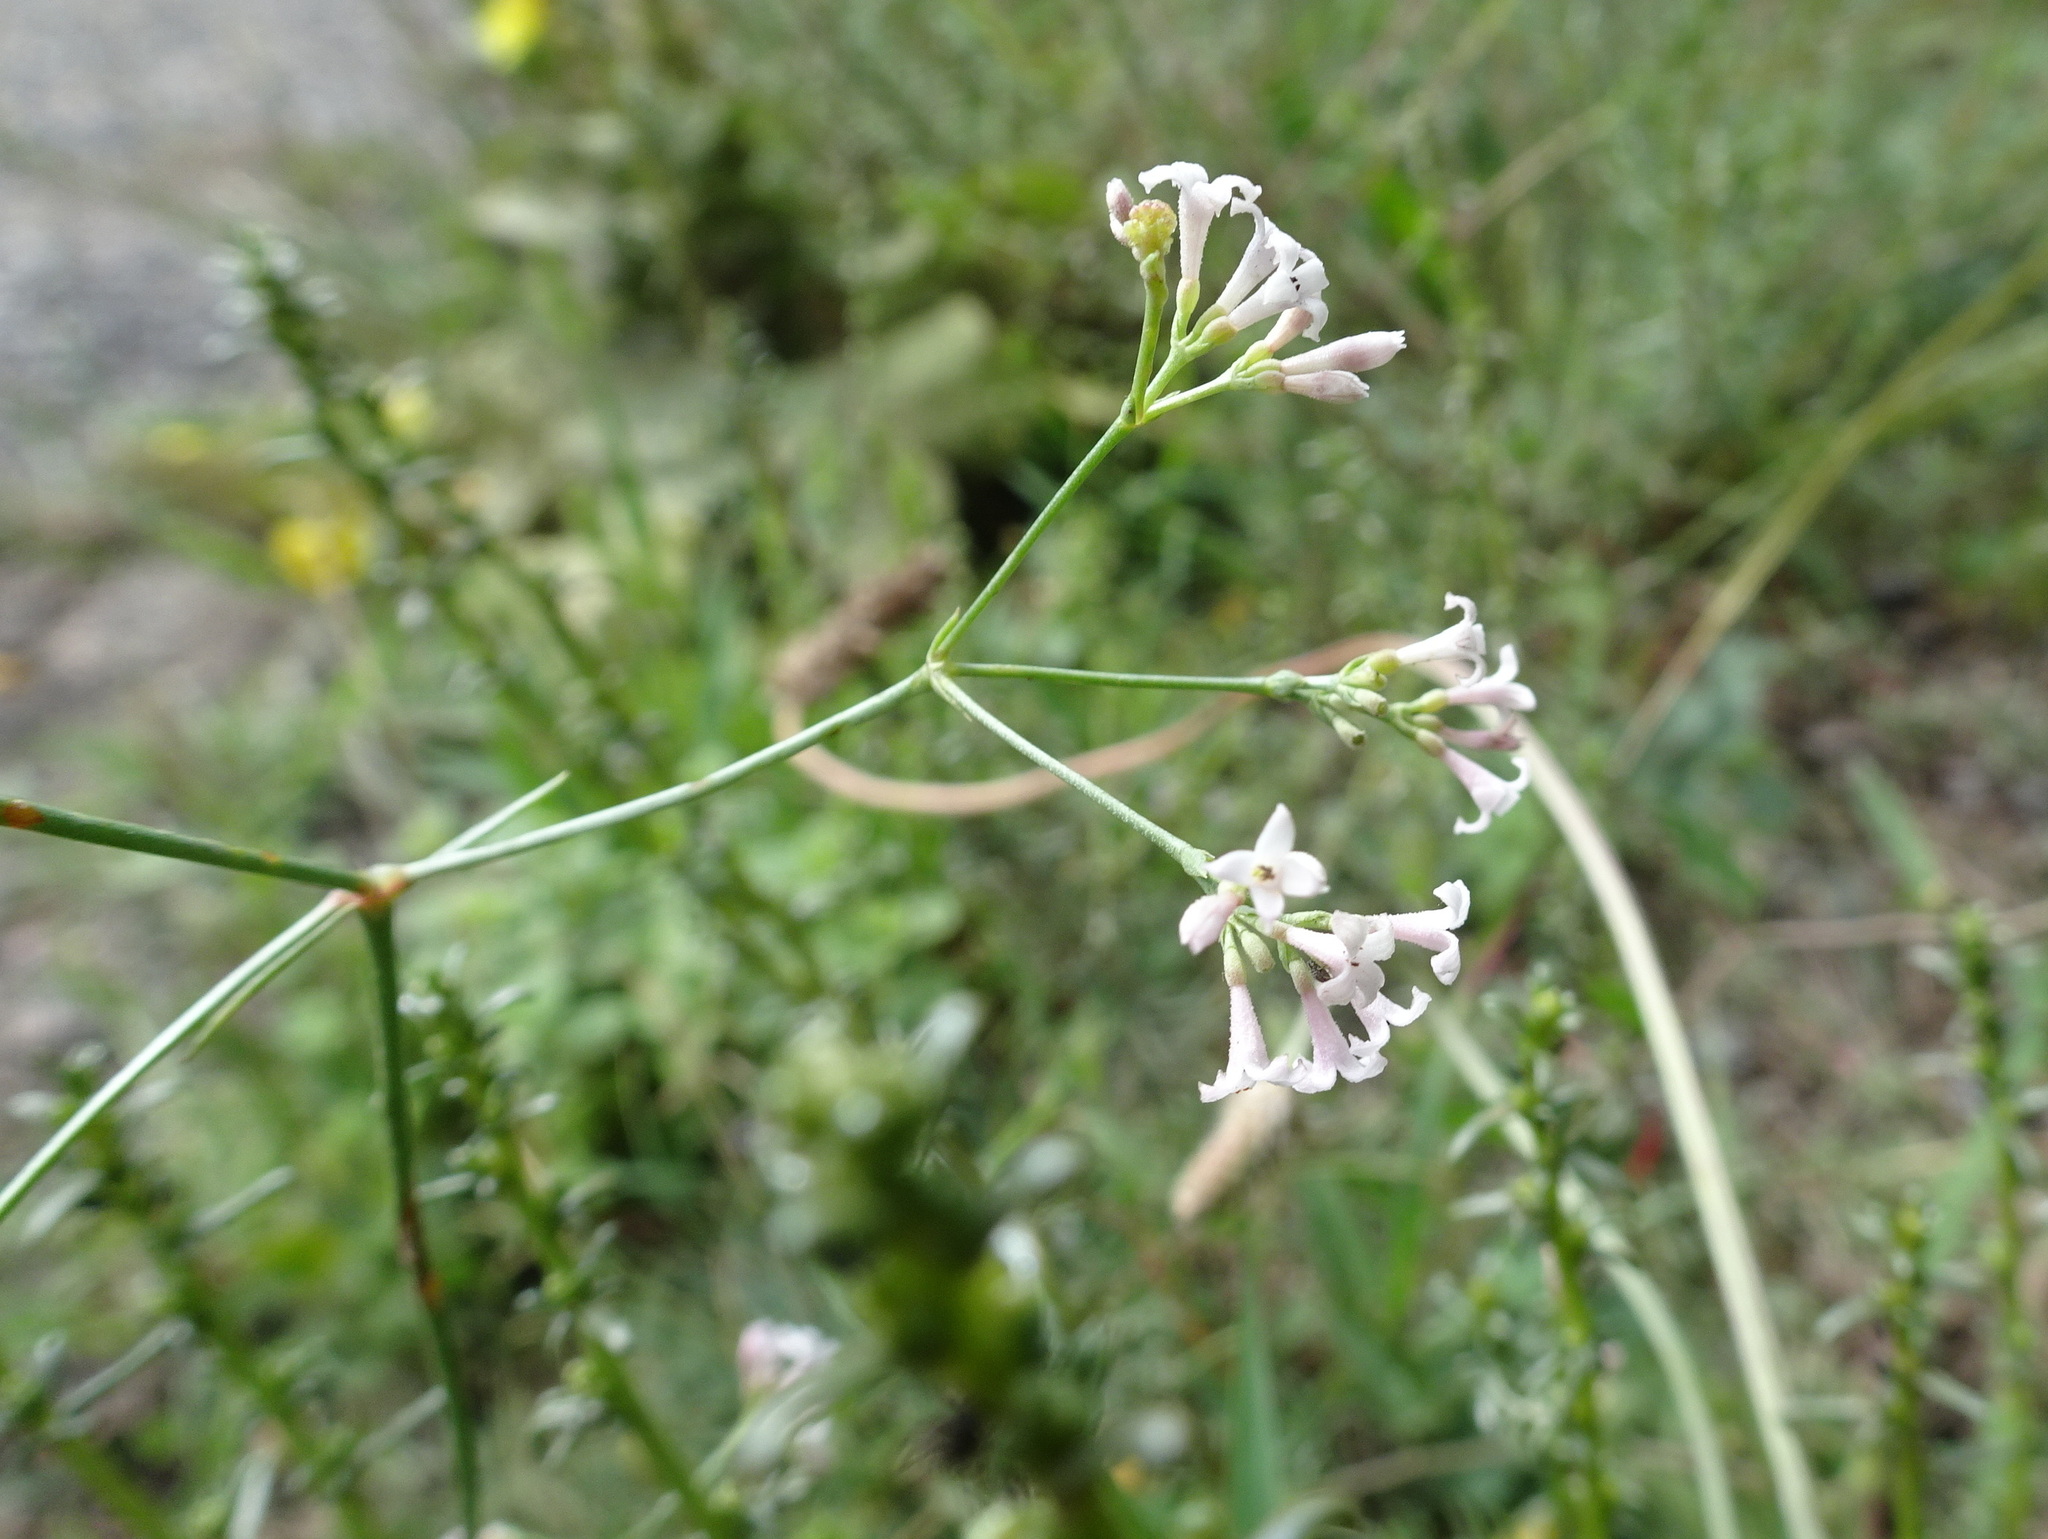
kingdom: Plantae
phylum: Tracheophyta
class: Magnoliopsida
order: Gentianales
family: Rubiaceae
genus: Cynanchica
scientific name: Cynanchica pyrenaica
